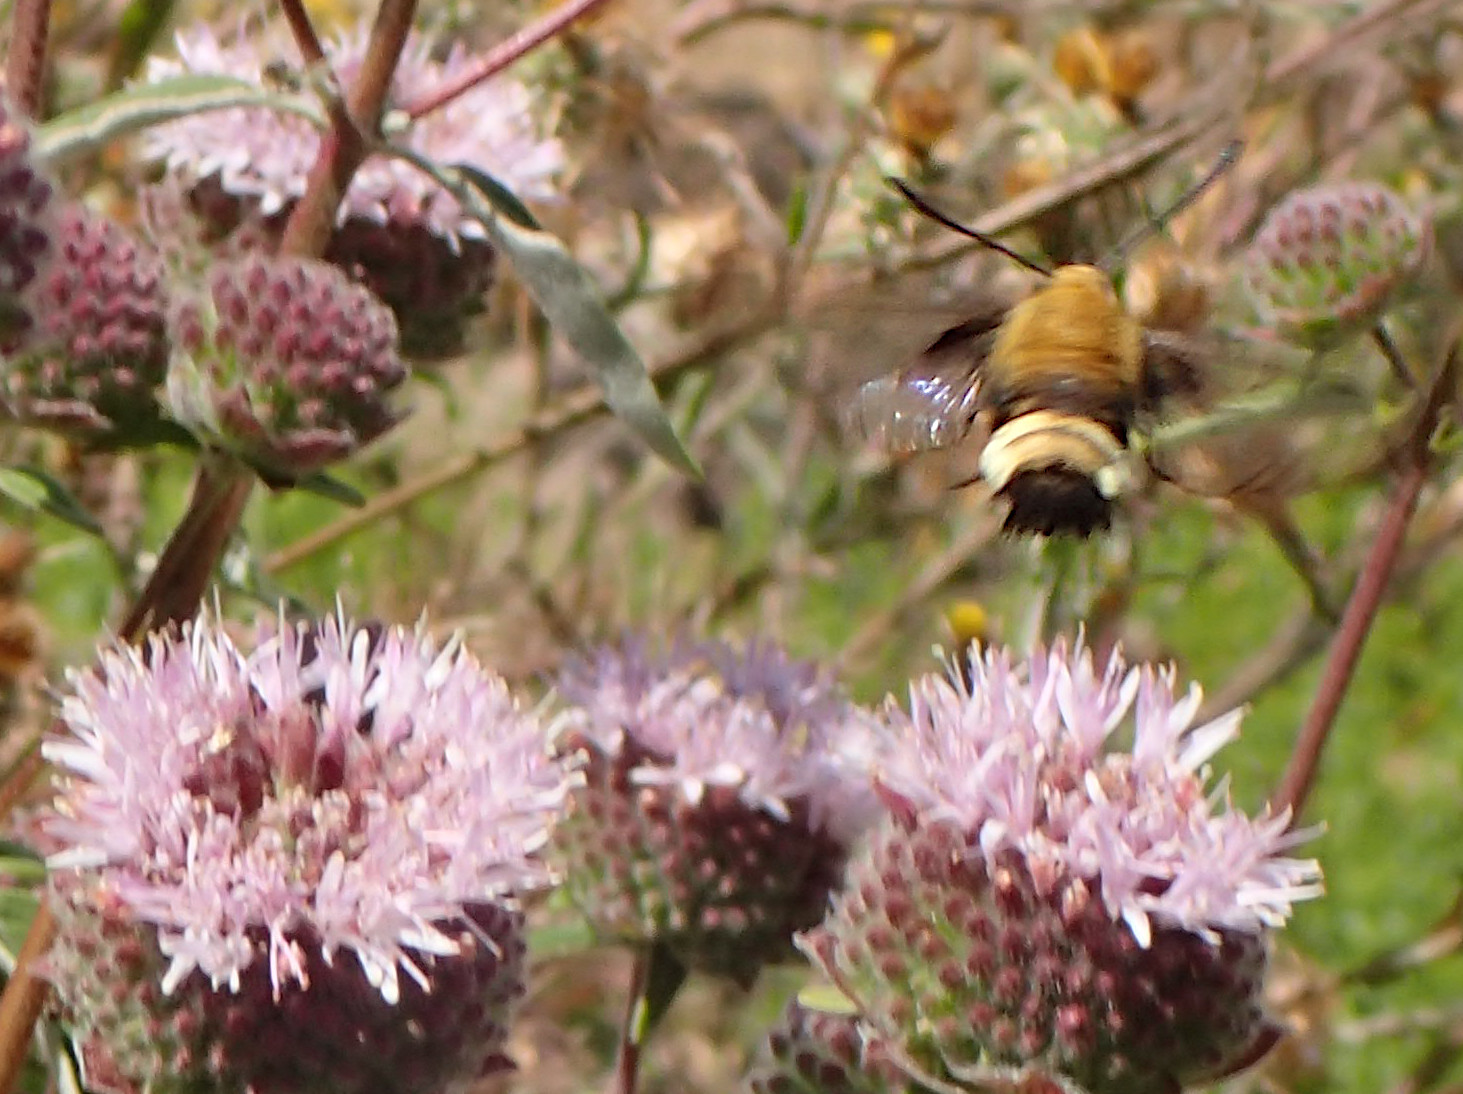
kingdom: Animalia
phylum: Arthropoda
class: Insecta
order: Lepidoptera
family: Sphingidae
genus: Hemaris
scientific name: Hemaris thetis
